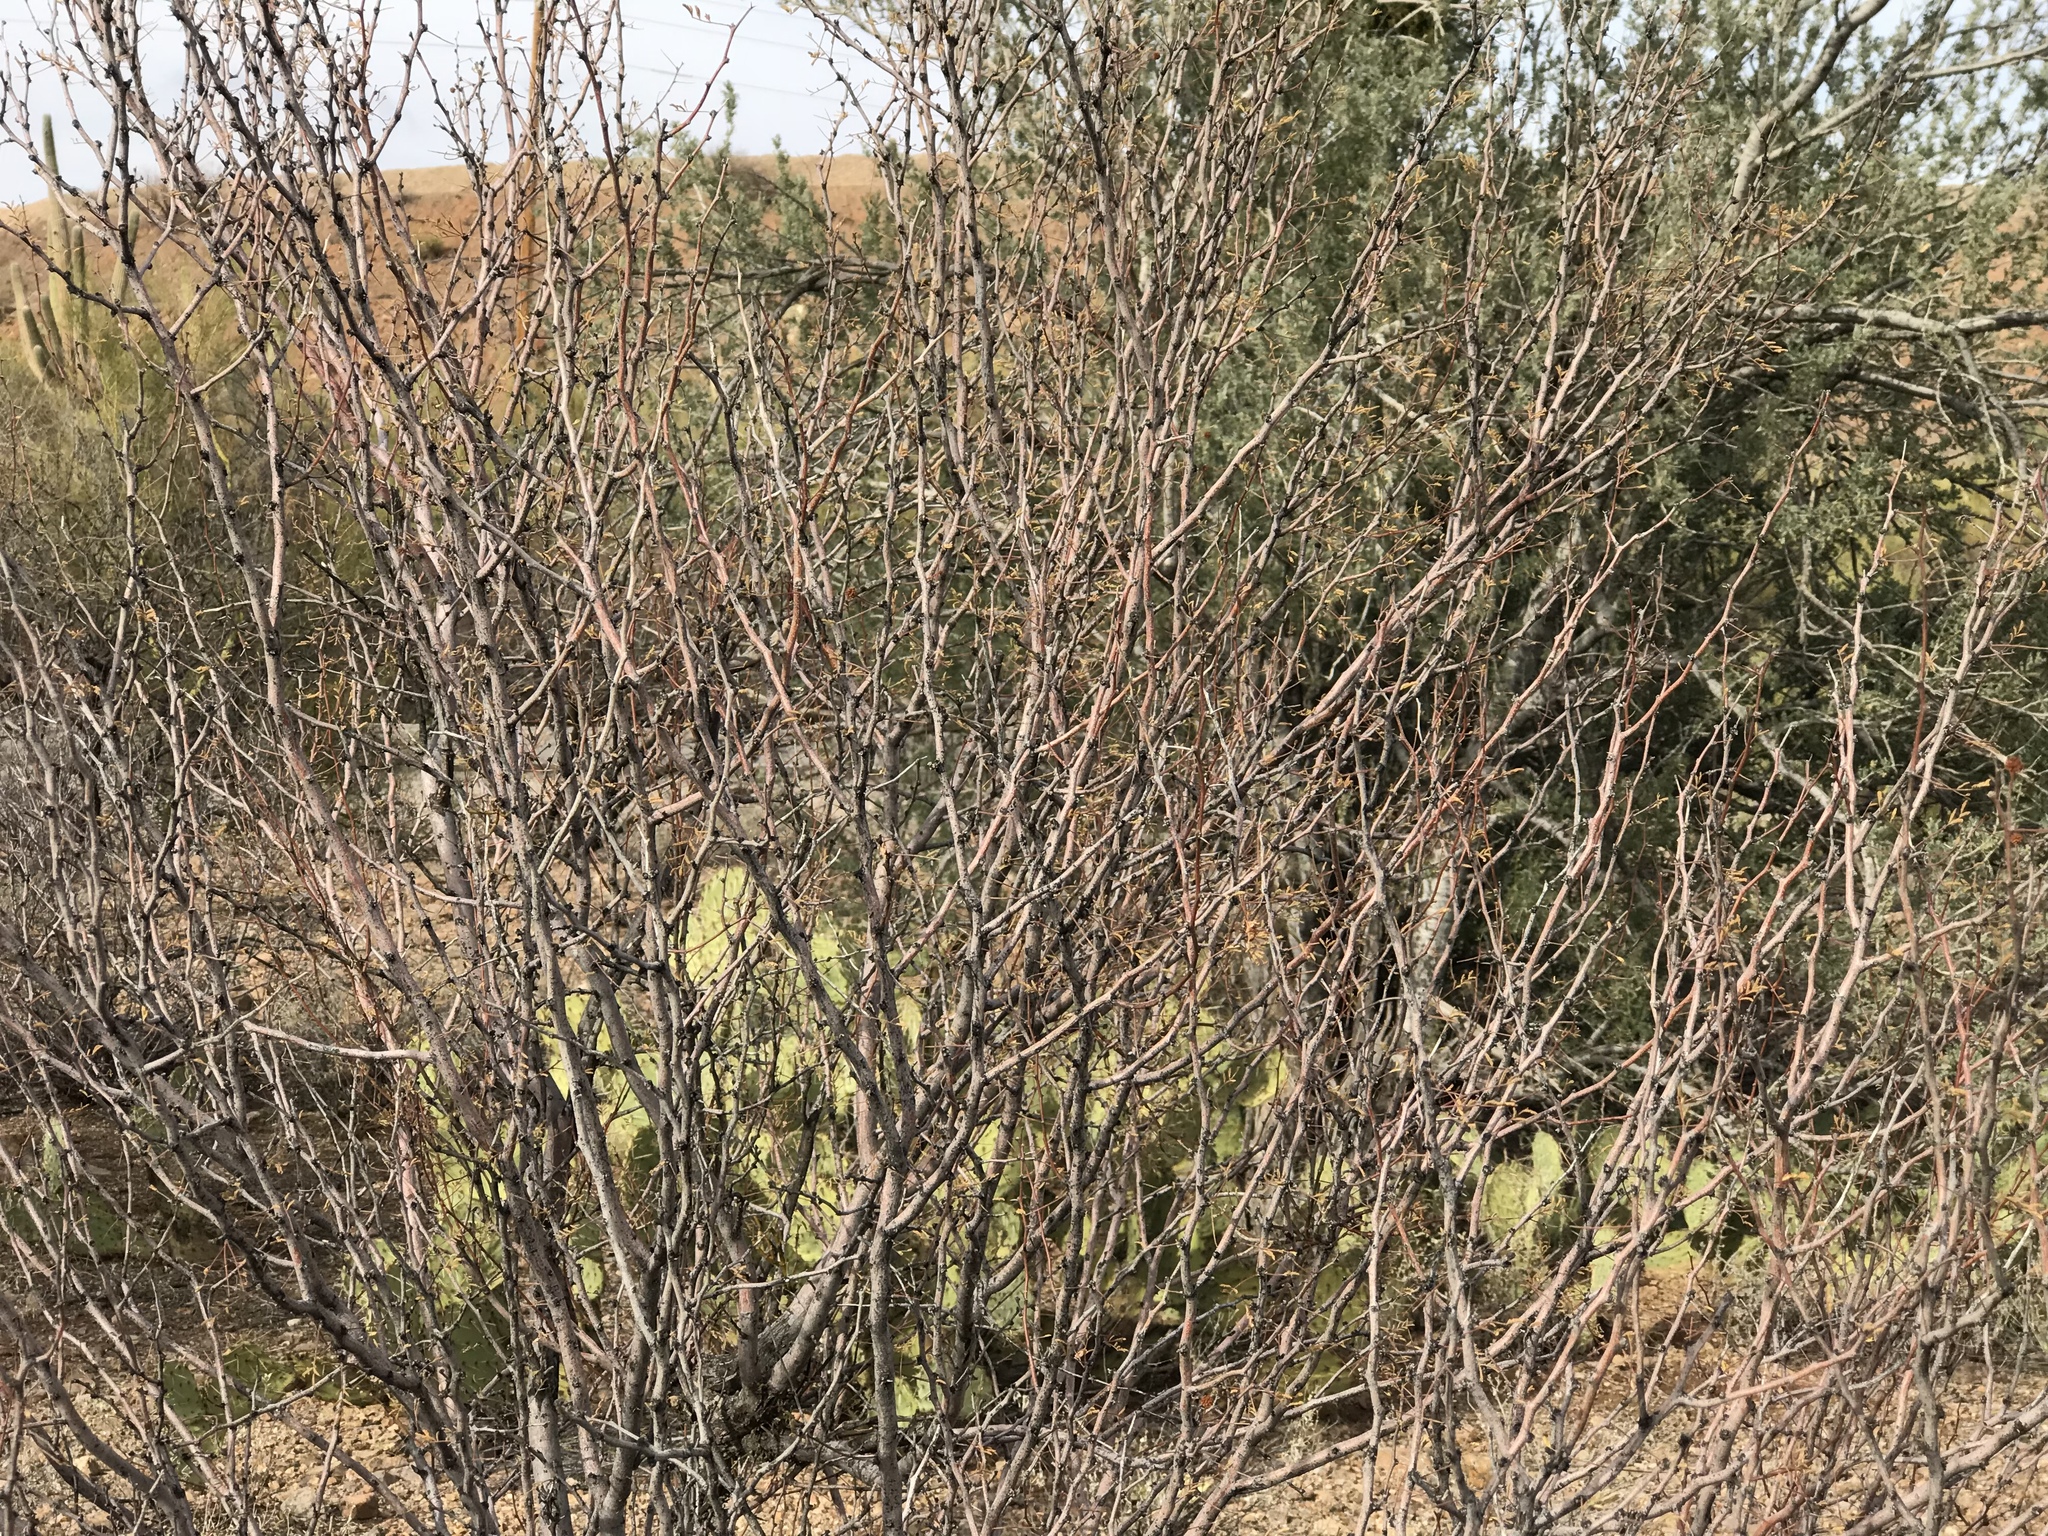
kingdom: Plantae
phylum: Tracheophyta
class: Magnoliopsida
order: Fabales
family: Fabaceae
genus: Vachellia
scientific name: Vachellia constricta
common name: Mescat acacia
